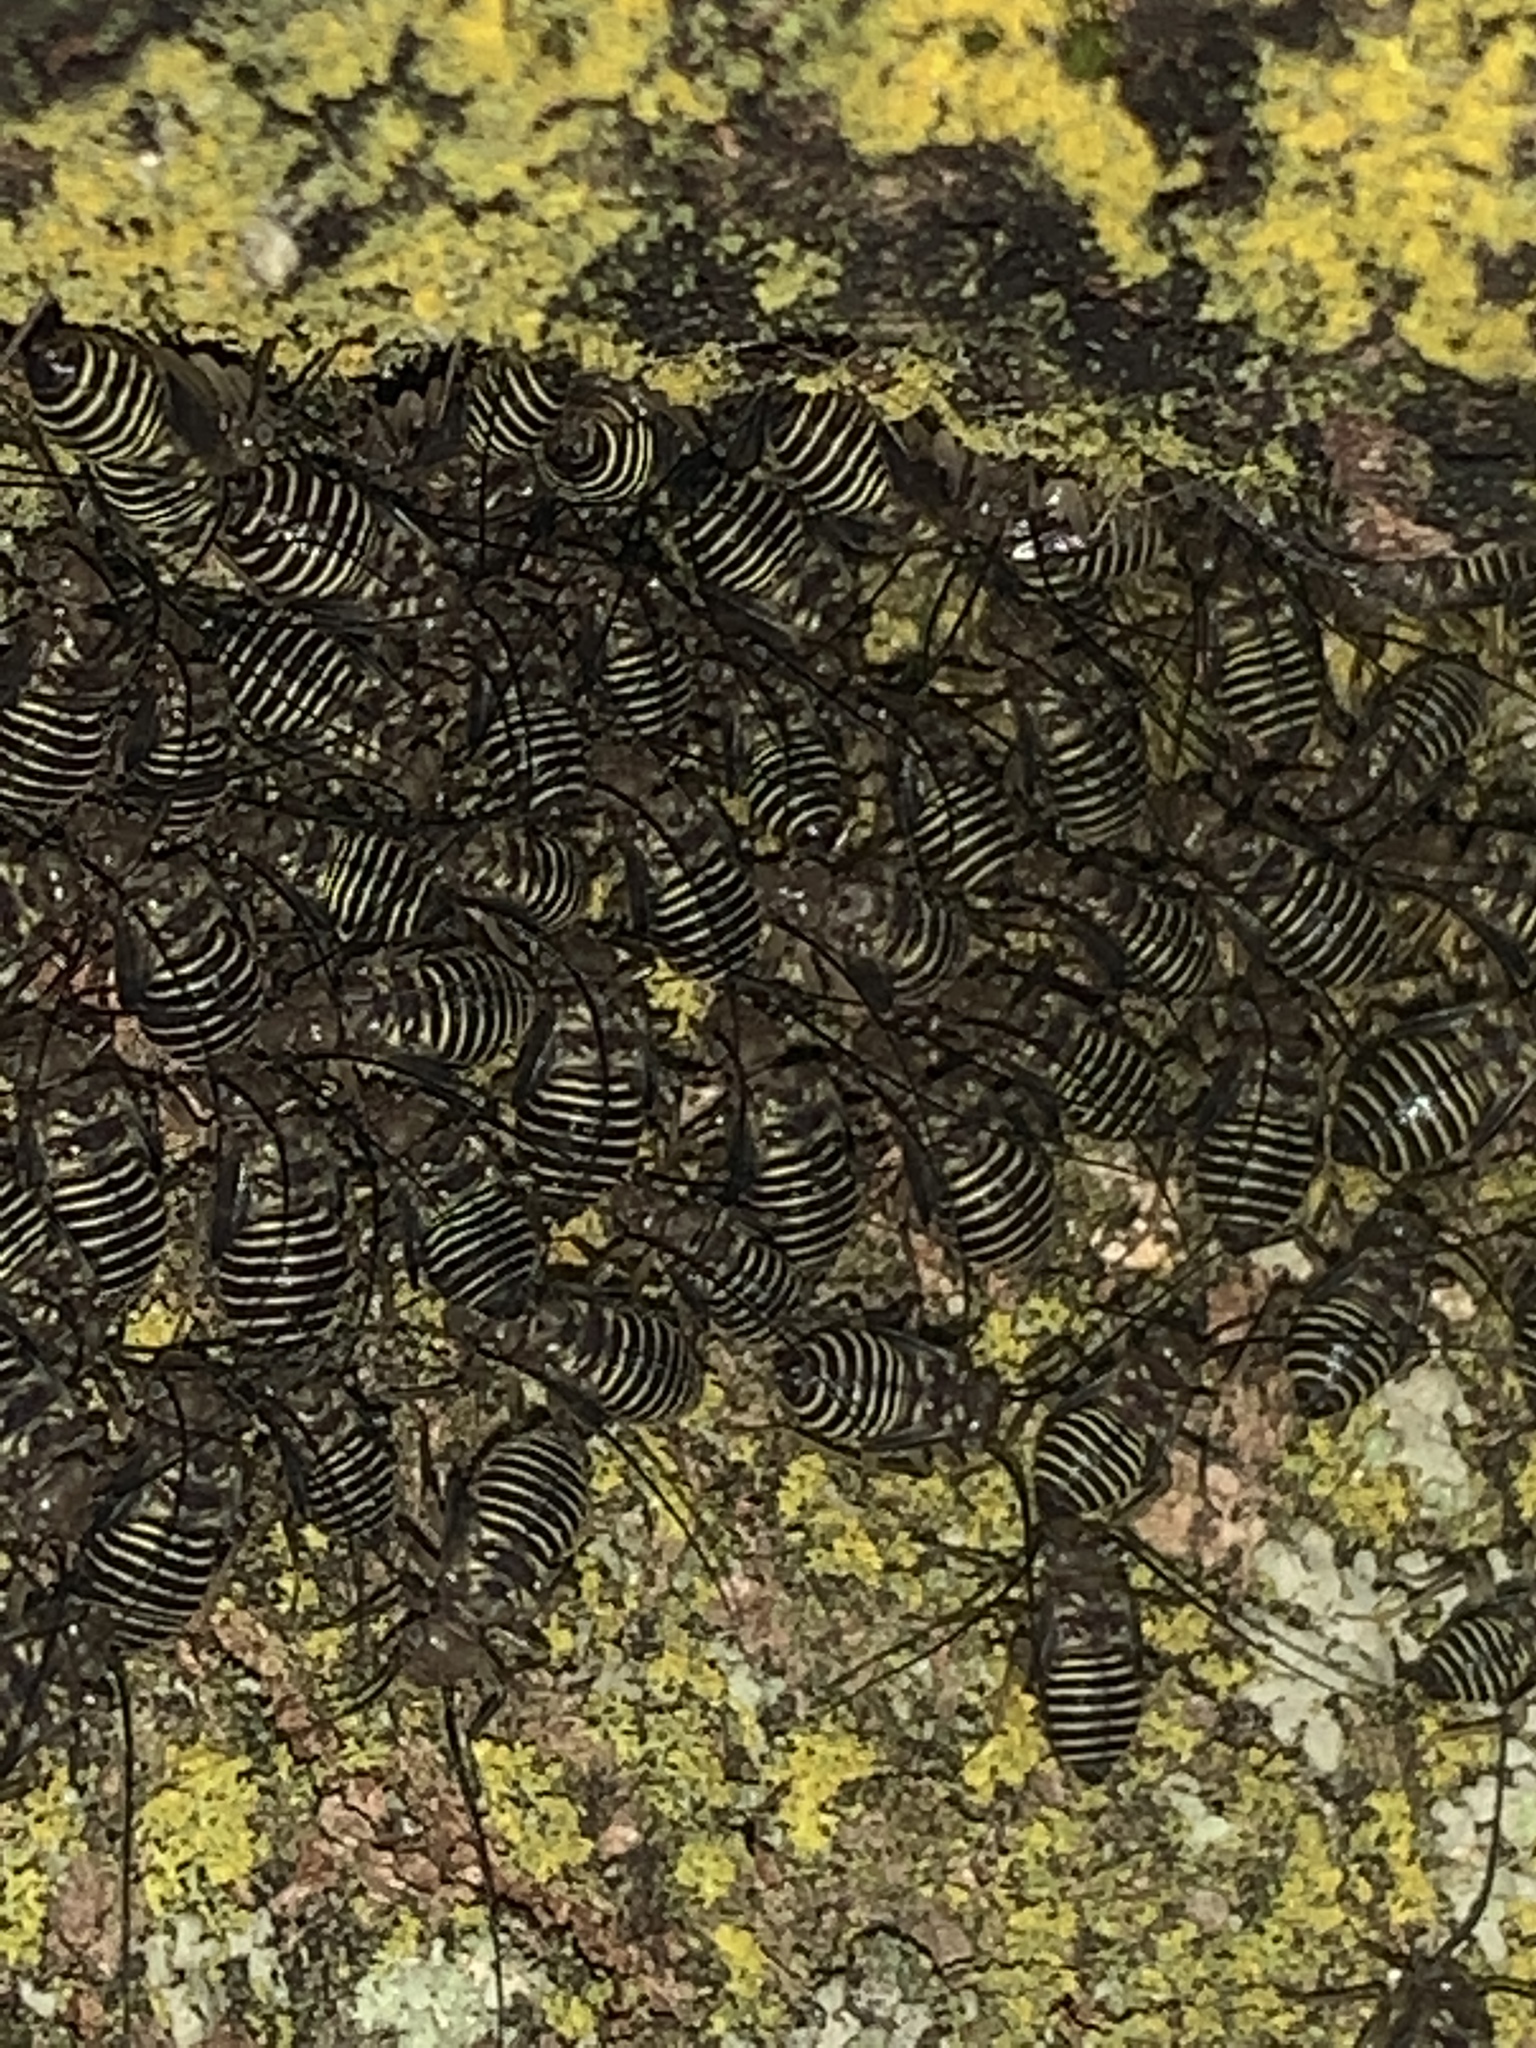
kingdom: Animalia
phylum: Arthropoda
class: Insecta
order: Psocodea
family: Psocidae
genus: Cerastipsocus
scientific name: Cerastipsocus venosus
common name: Tree cattle
